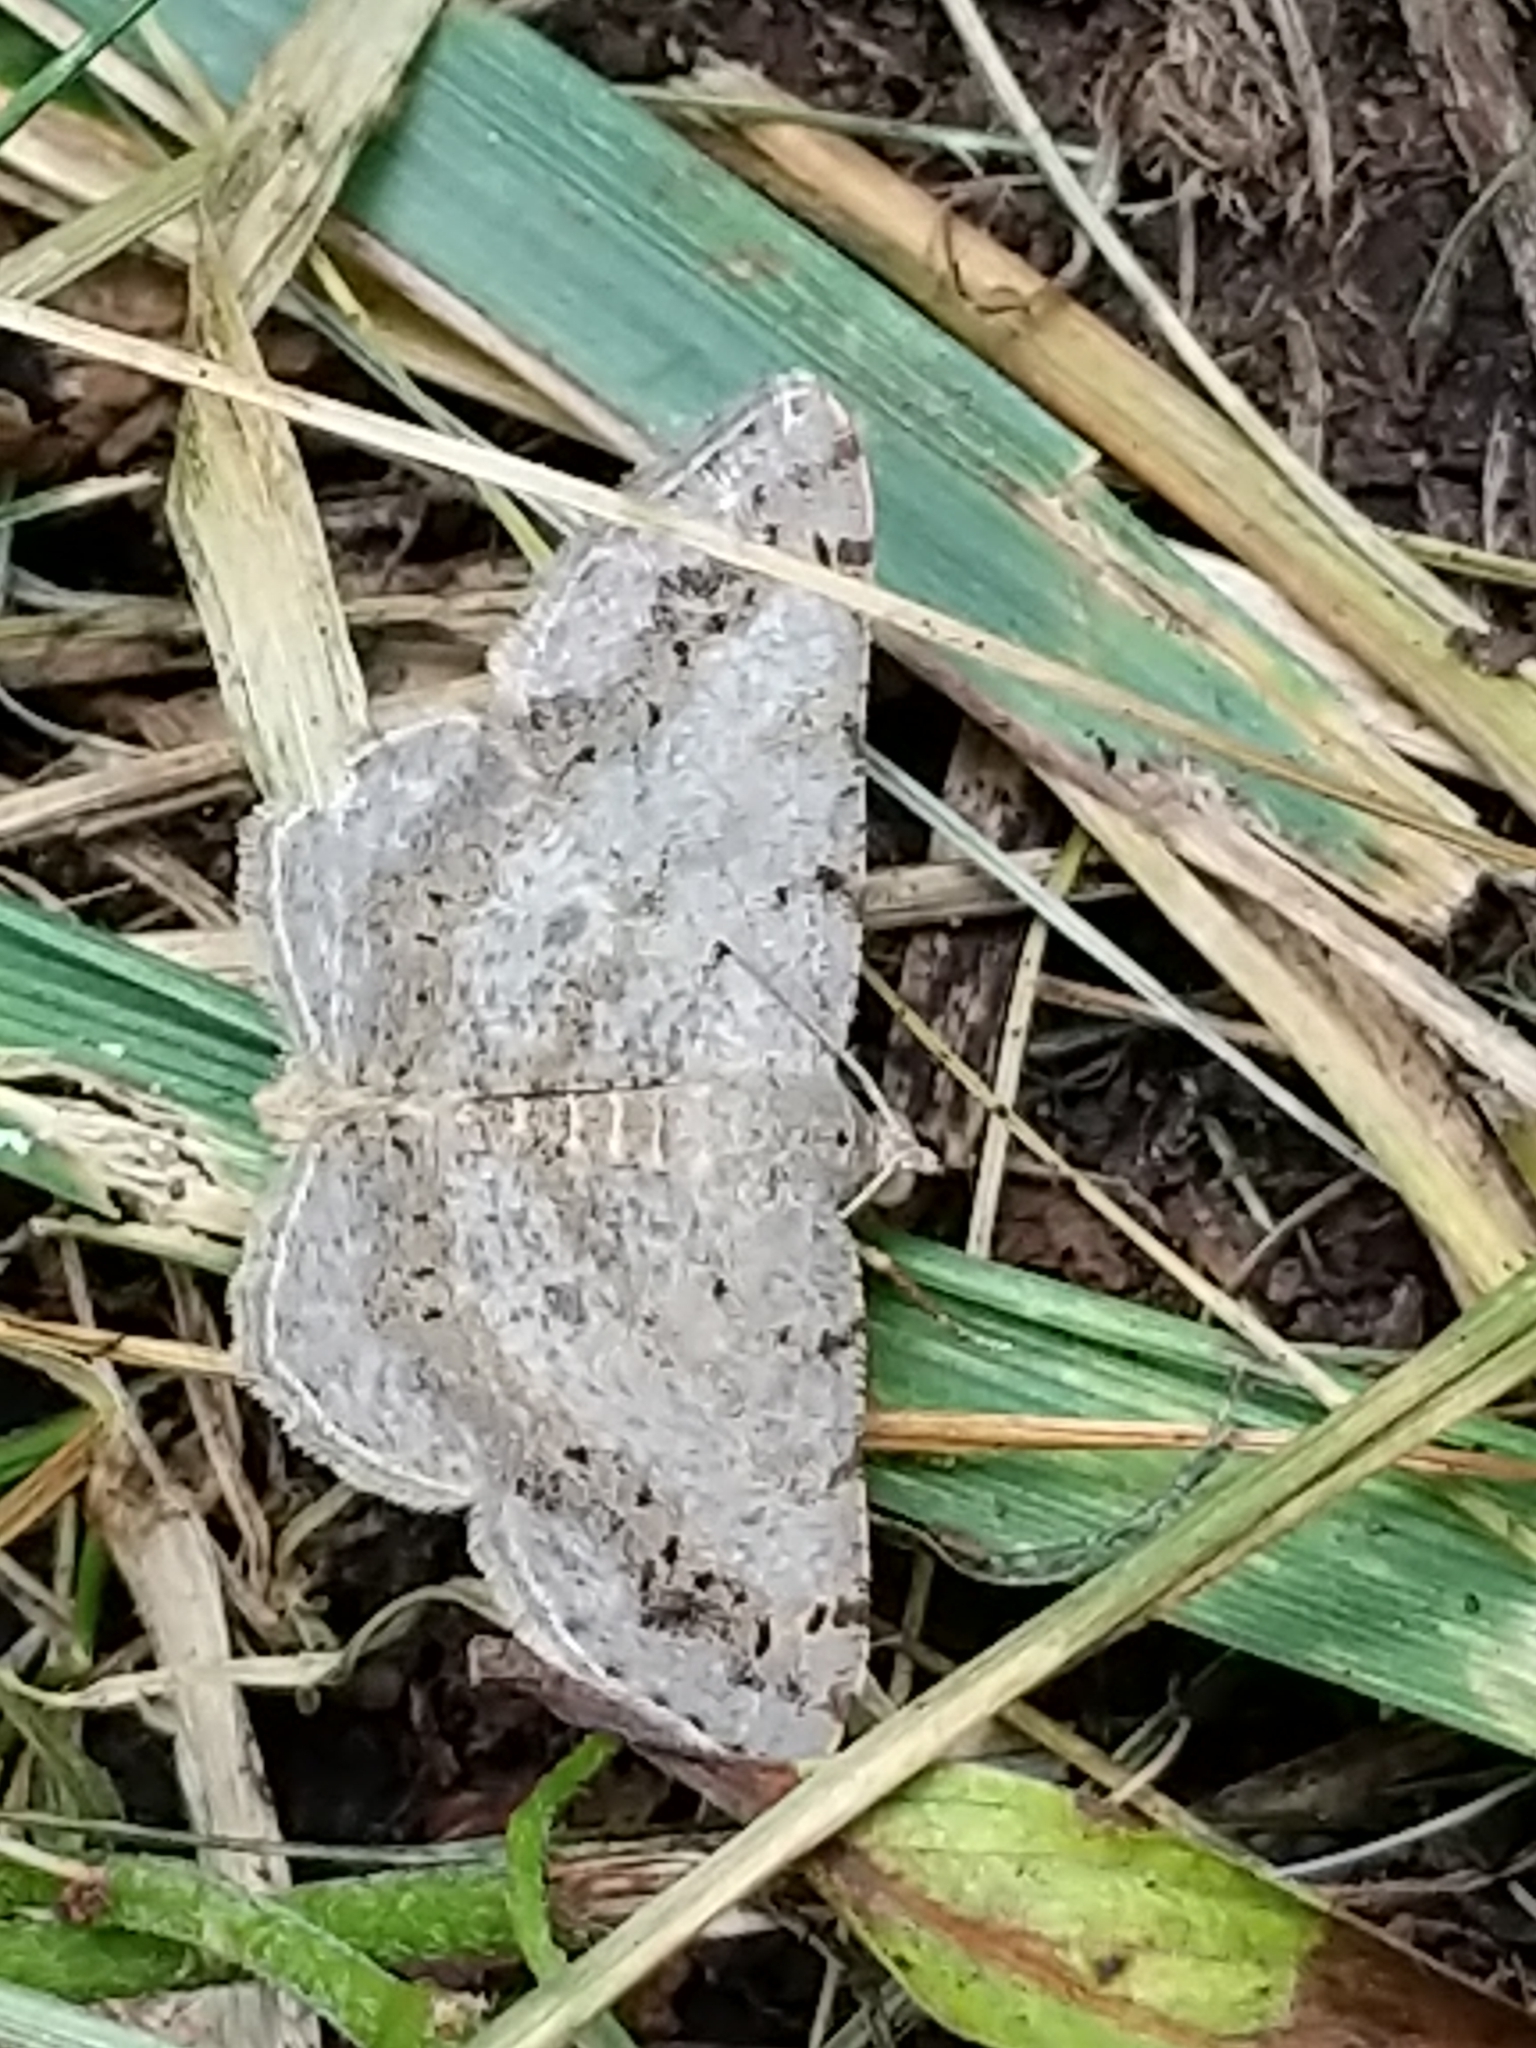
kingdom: Animalia
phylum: Arthropoda
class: Insecta
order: Lepidoptera
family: Geometridae
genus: Digrammia
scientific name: Digrammia ocellinata
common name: Faint-spotted angle
